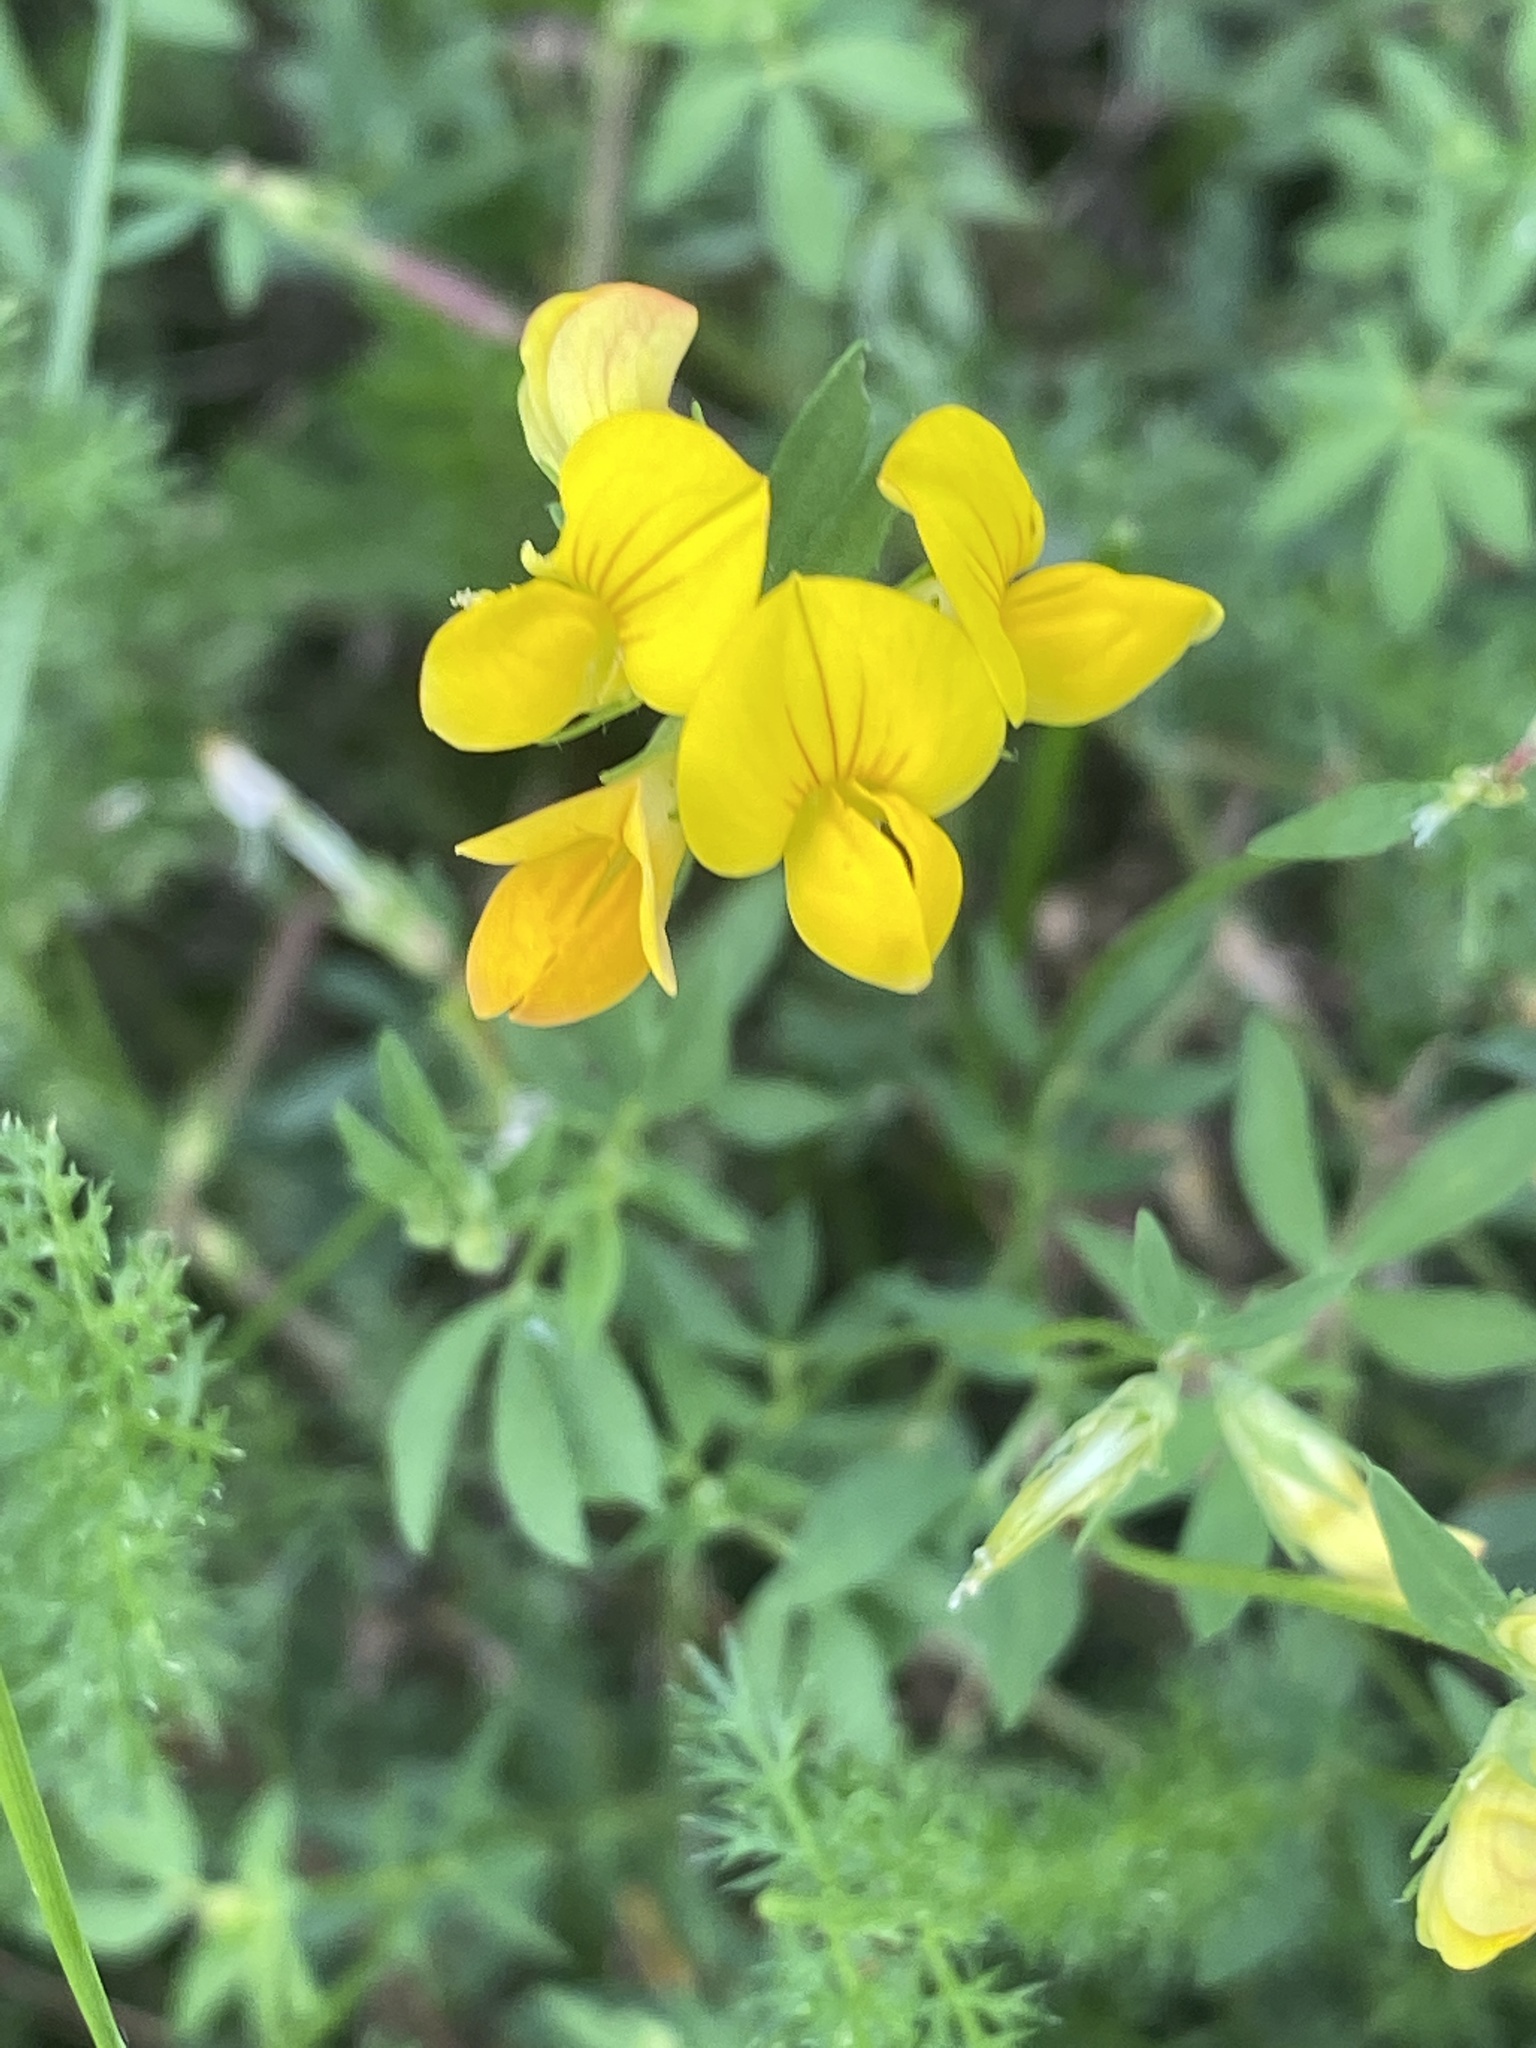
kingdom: Plantae
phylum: Tracheophyta
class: Magnoliopsida
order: Fabales
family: Fabaceae
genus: Lotus
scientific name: Lotus corniculatus
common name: Common bird's-foot-trefoil
